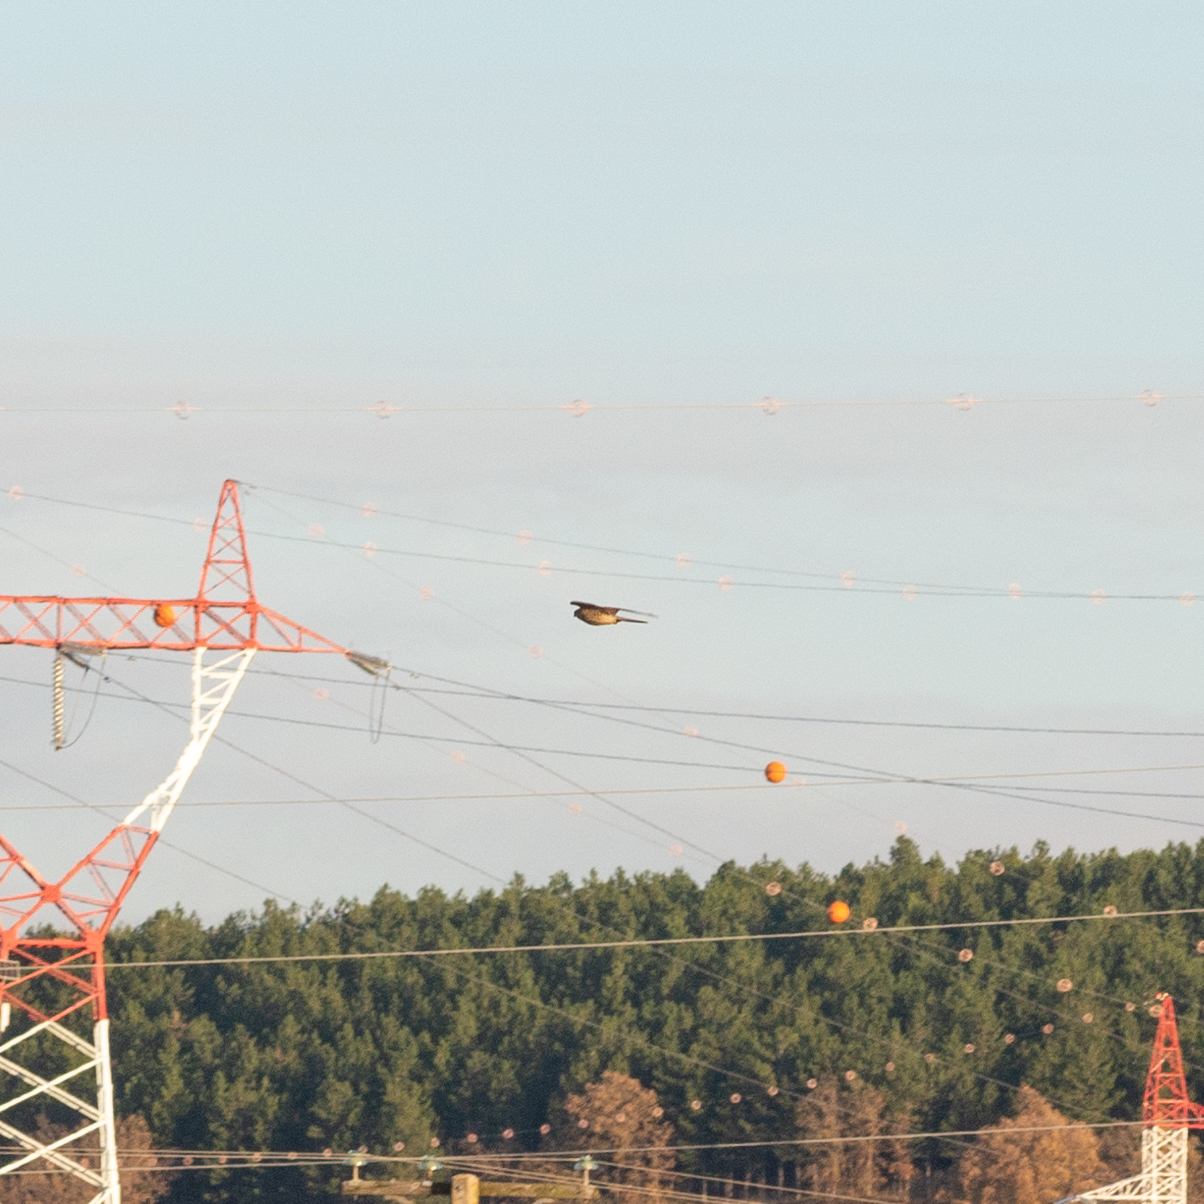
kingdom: Animalia
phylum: Chordata
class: Aves
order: Falconiformes
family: Falconidae
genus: Falco
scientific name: Falco tinnunculus
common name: Common kestrel
